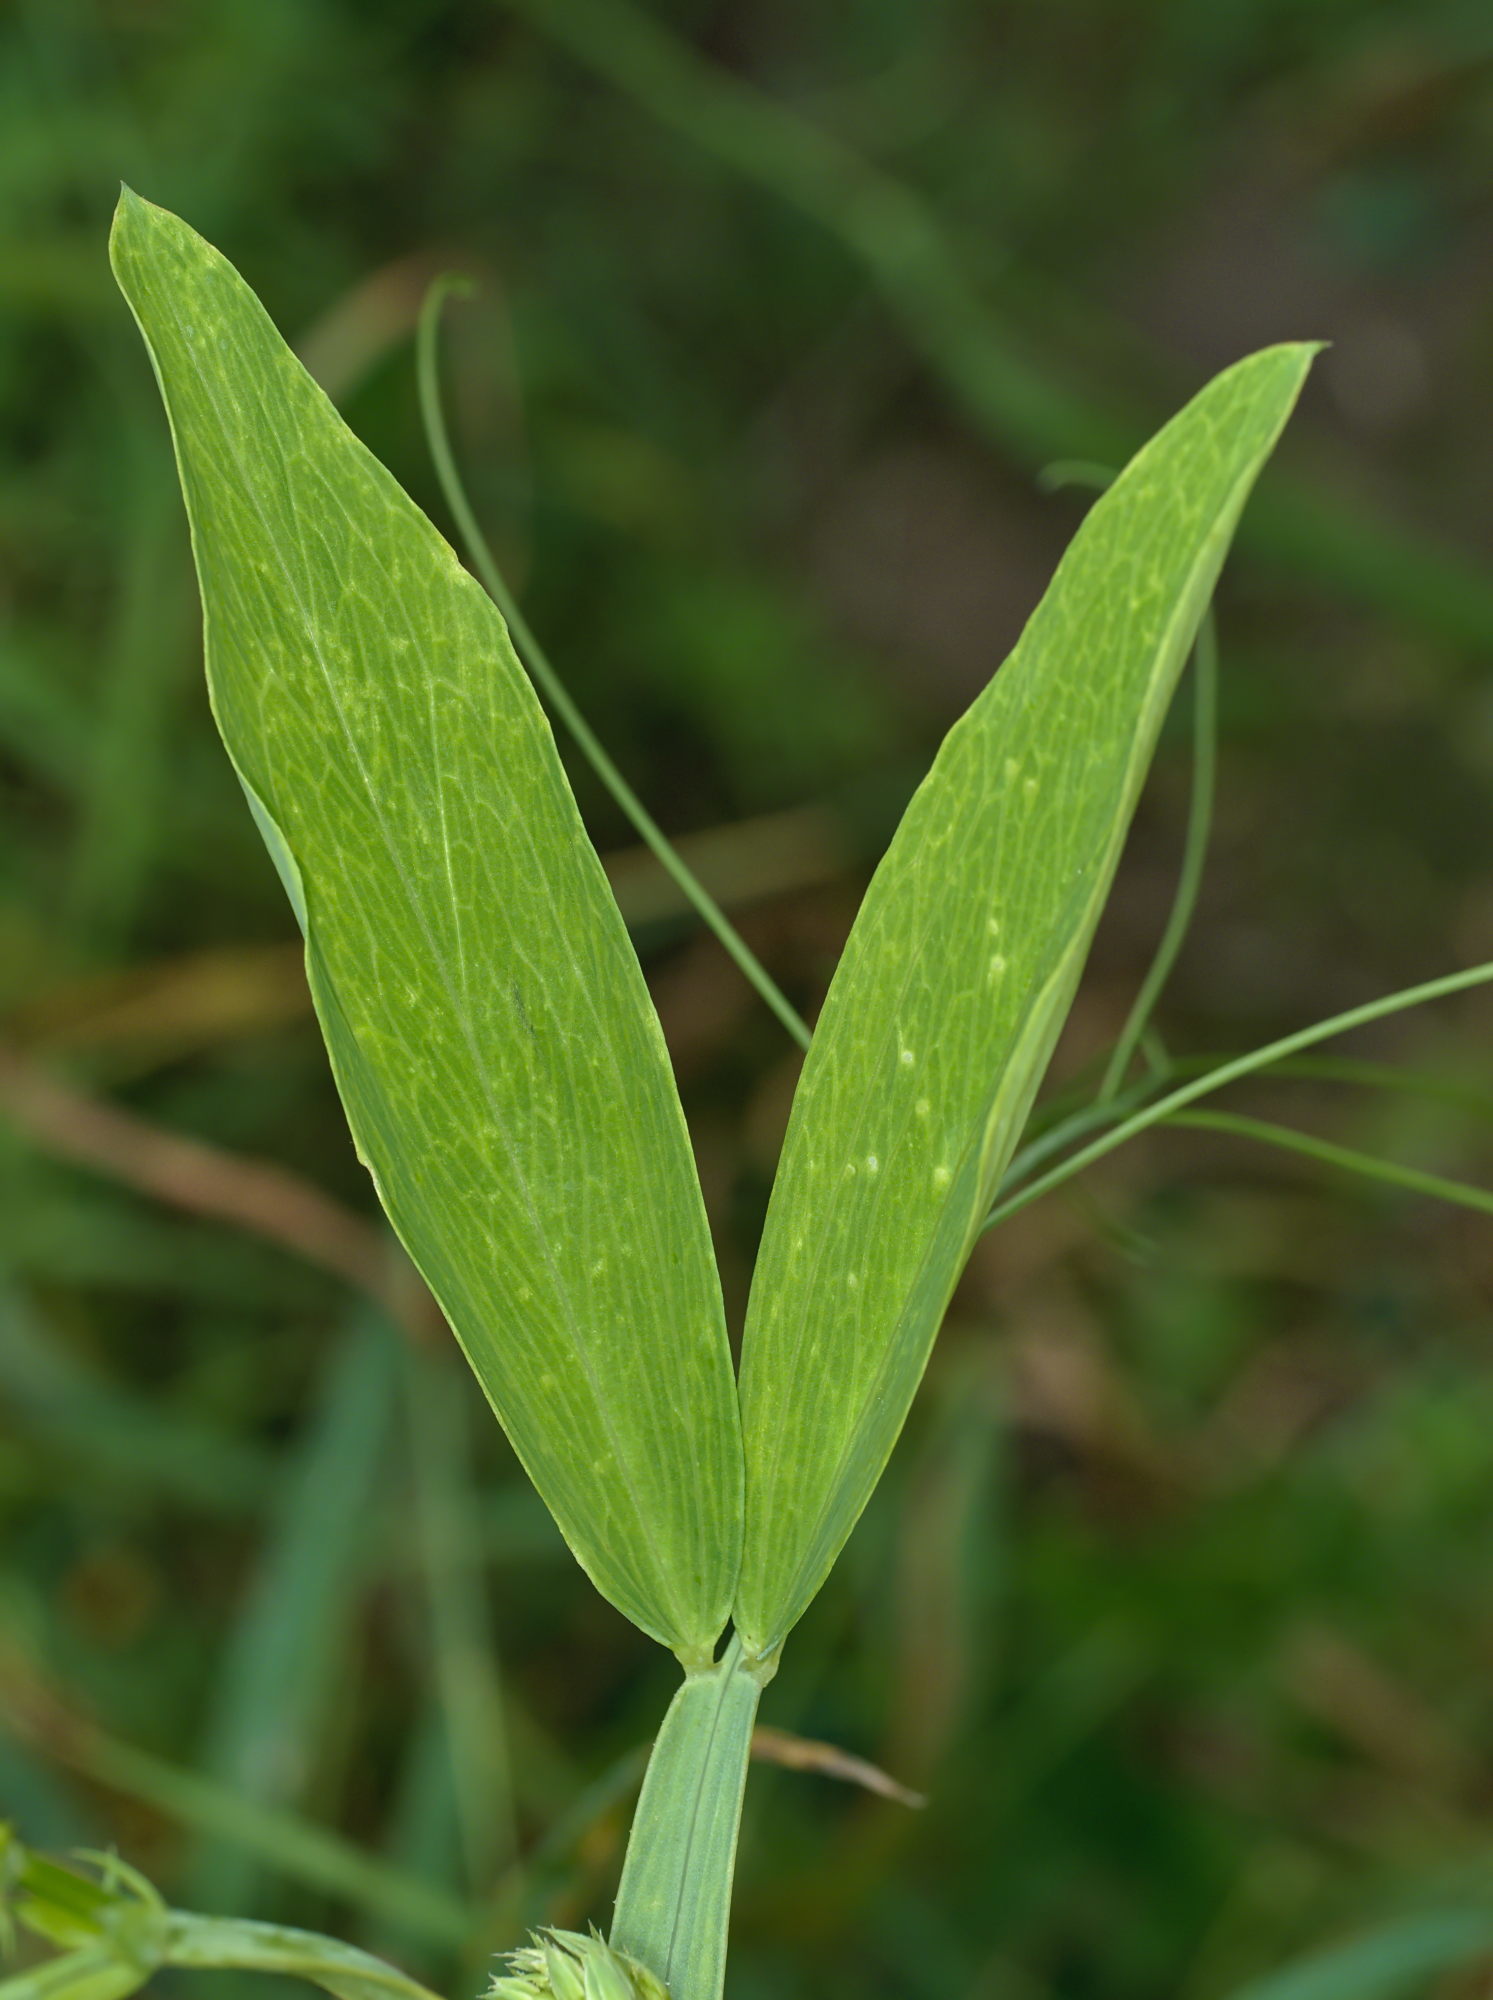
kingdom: Plantae
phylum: Tracheophyta
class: Magnoliopsida
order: Fabales
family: Fabaceae
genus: Lathyrus
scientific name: Lathyrus latifolius
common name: Perennial pea
